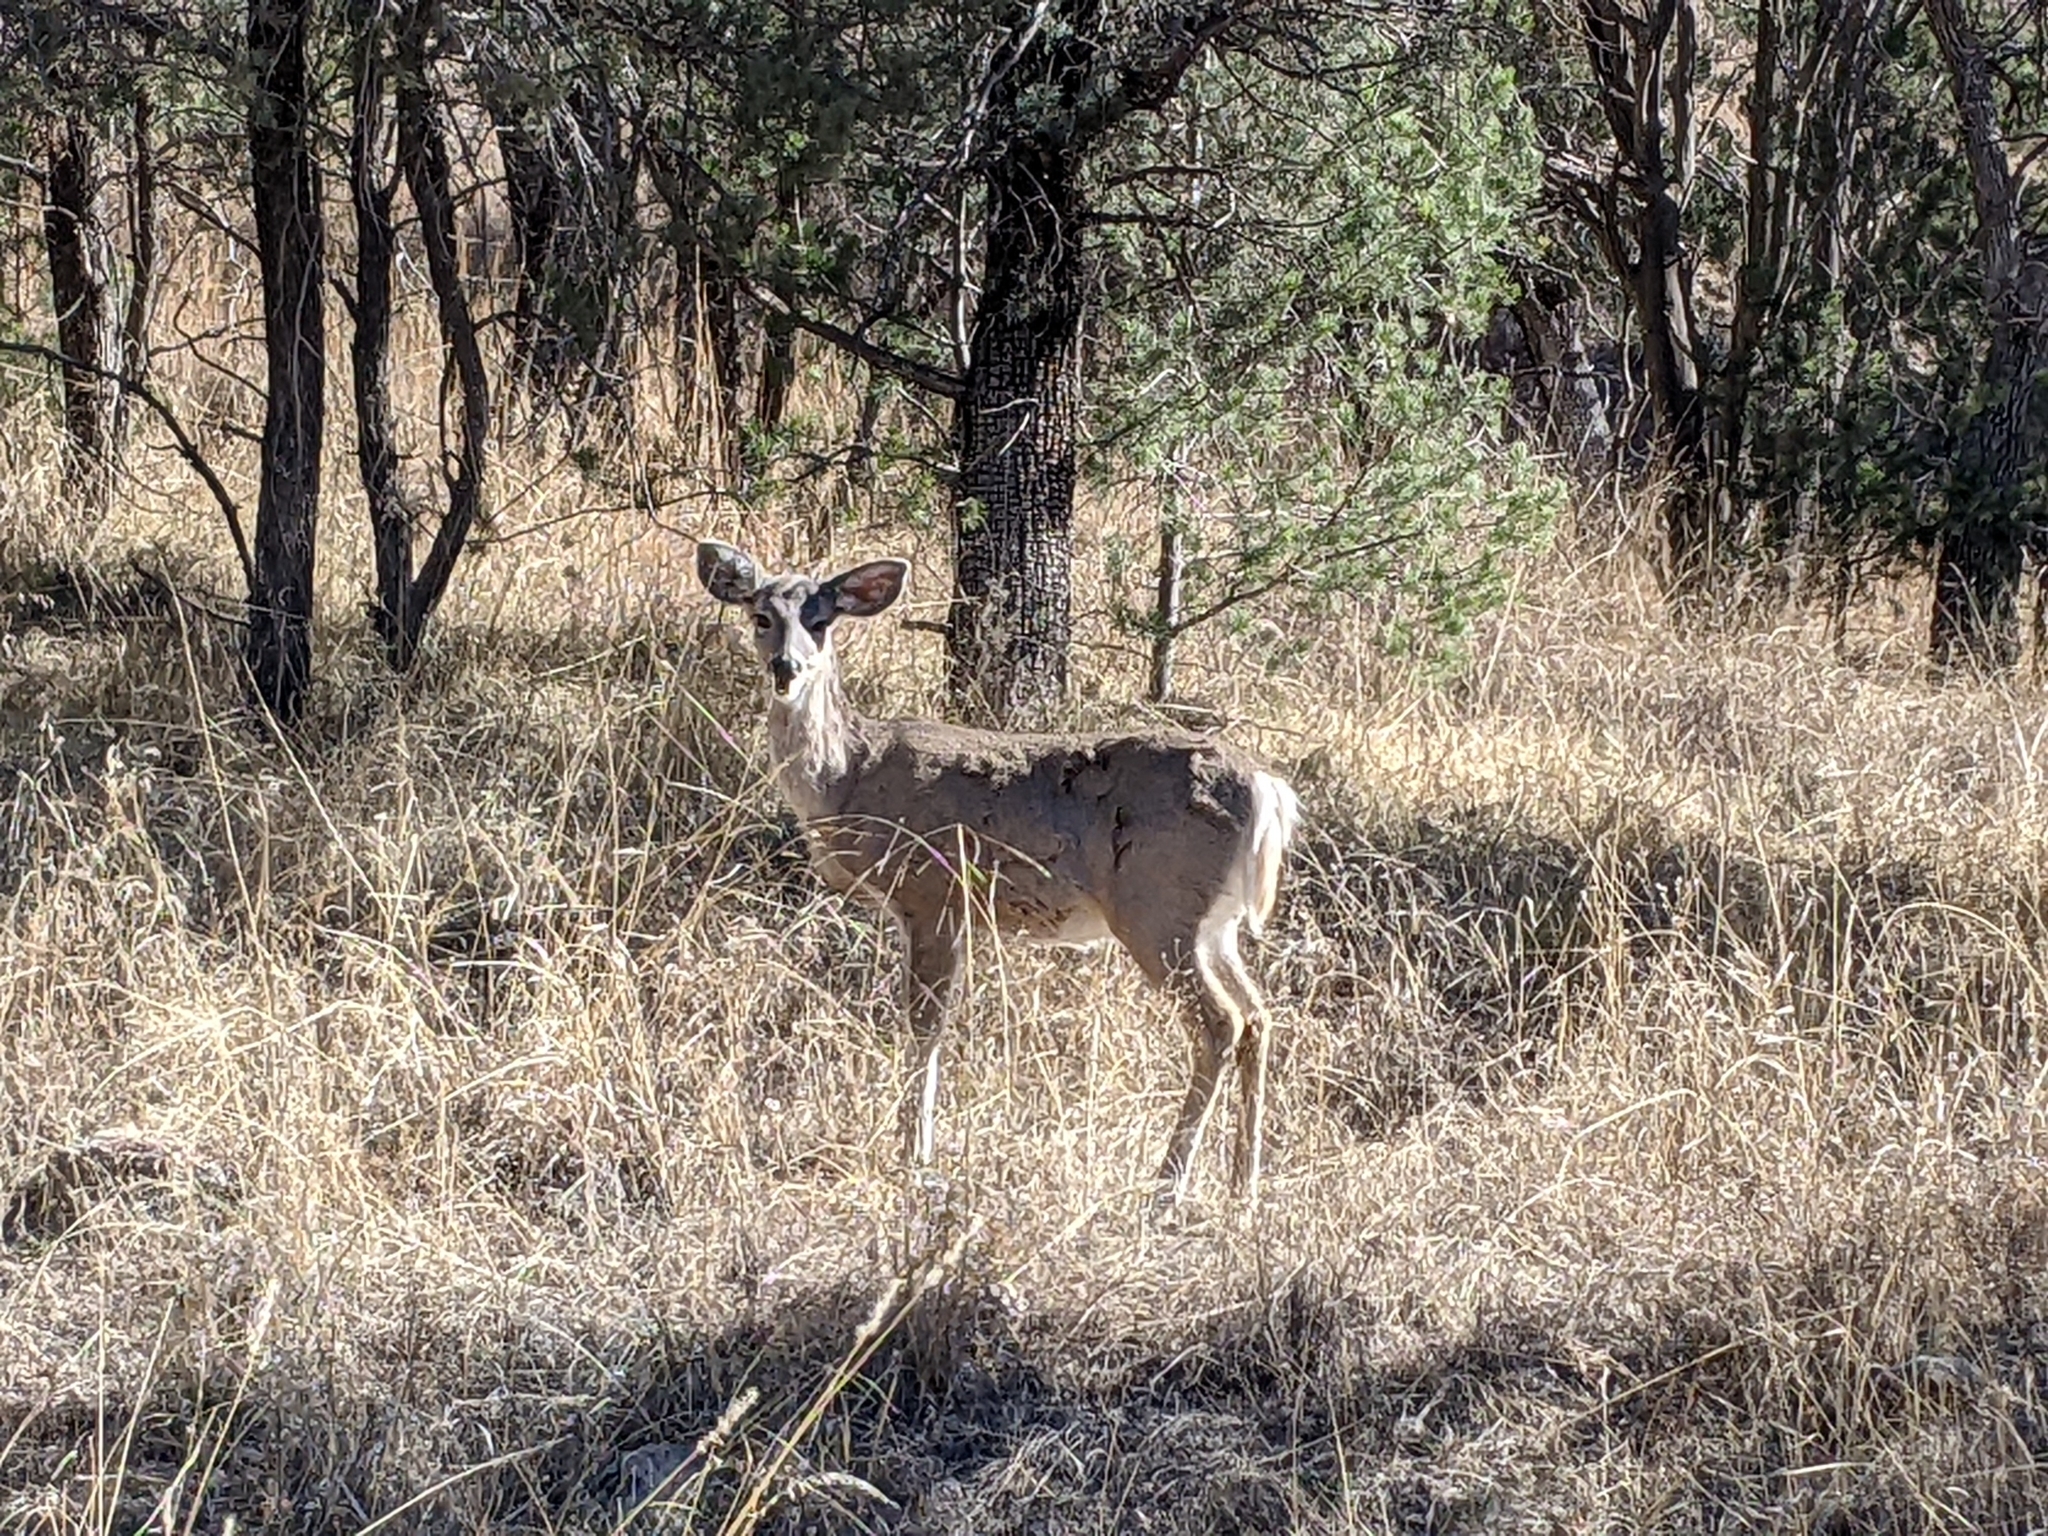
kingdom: Animalia
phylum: Chordata
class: Mammalia
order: Artiodactyla
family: Cervidae
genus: Odocoileus
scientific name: Odocoileus virginianus
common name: White-tailed deer
